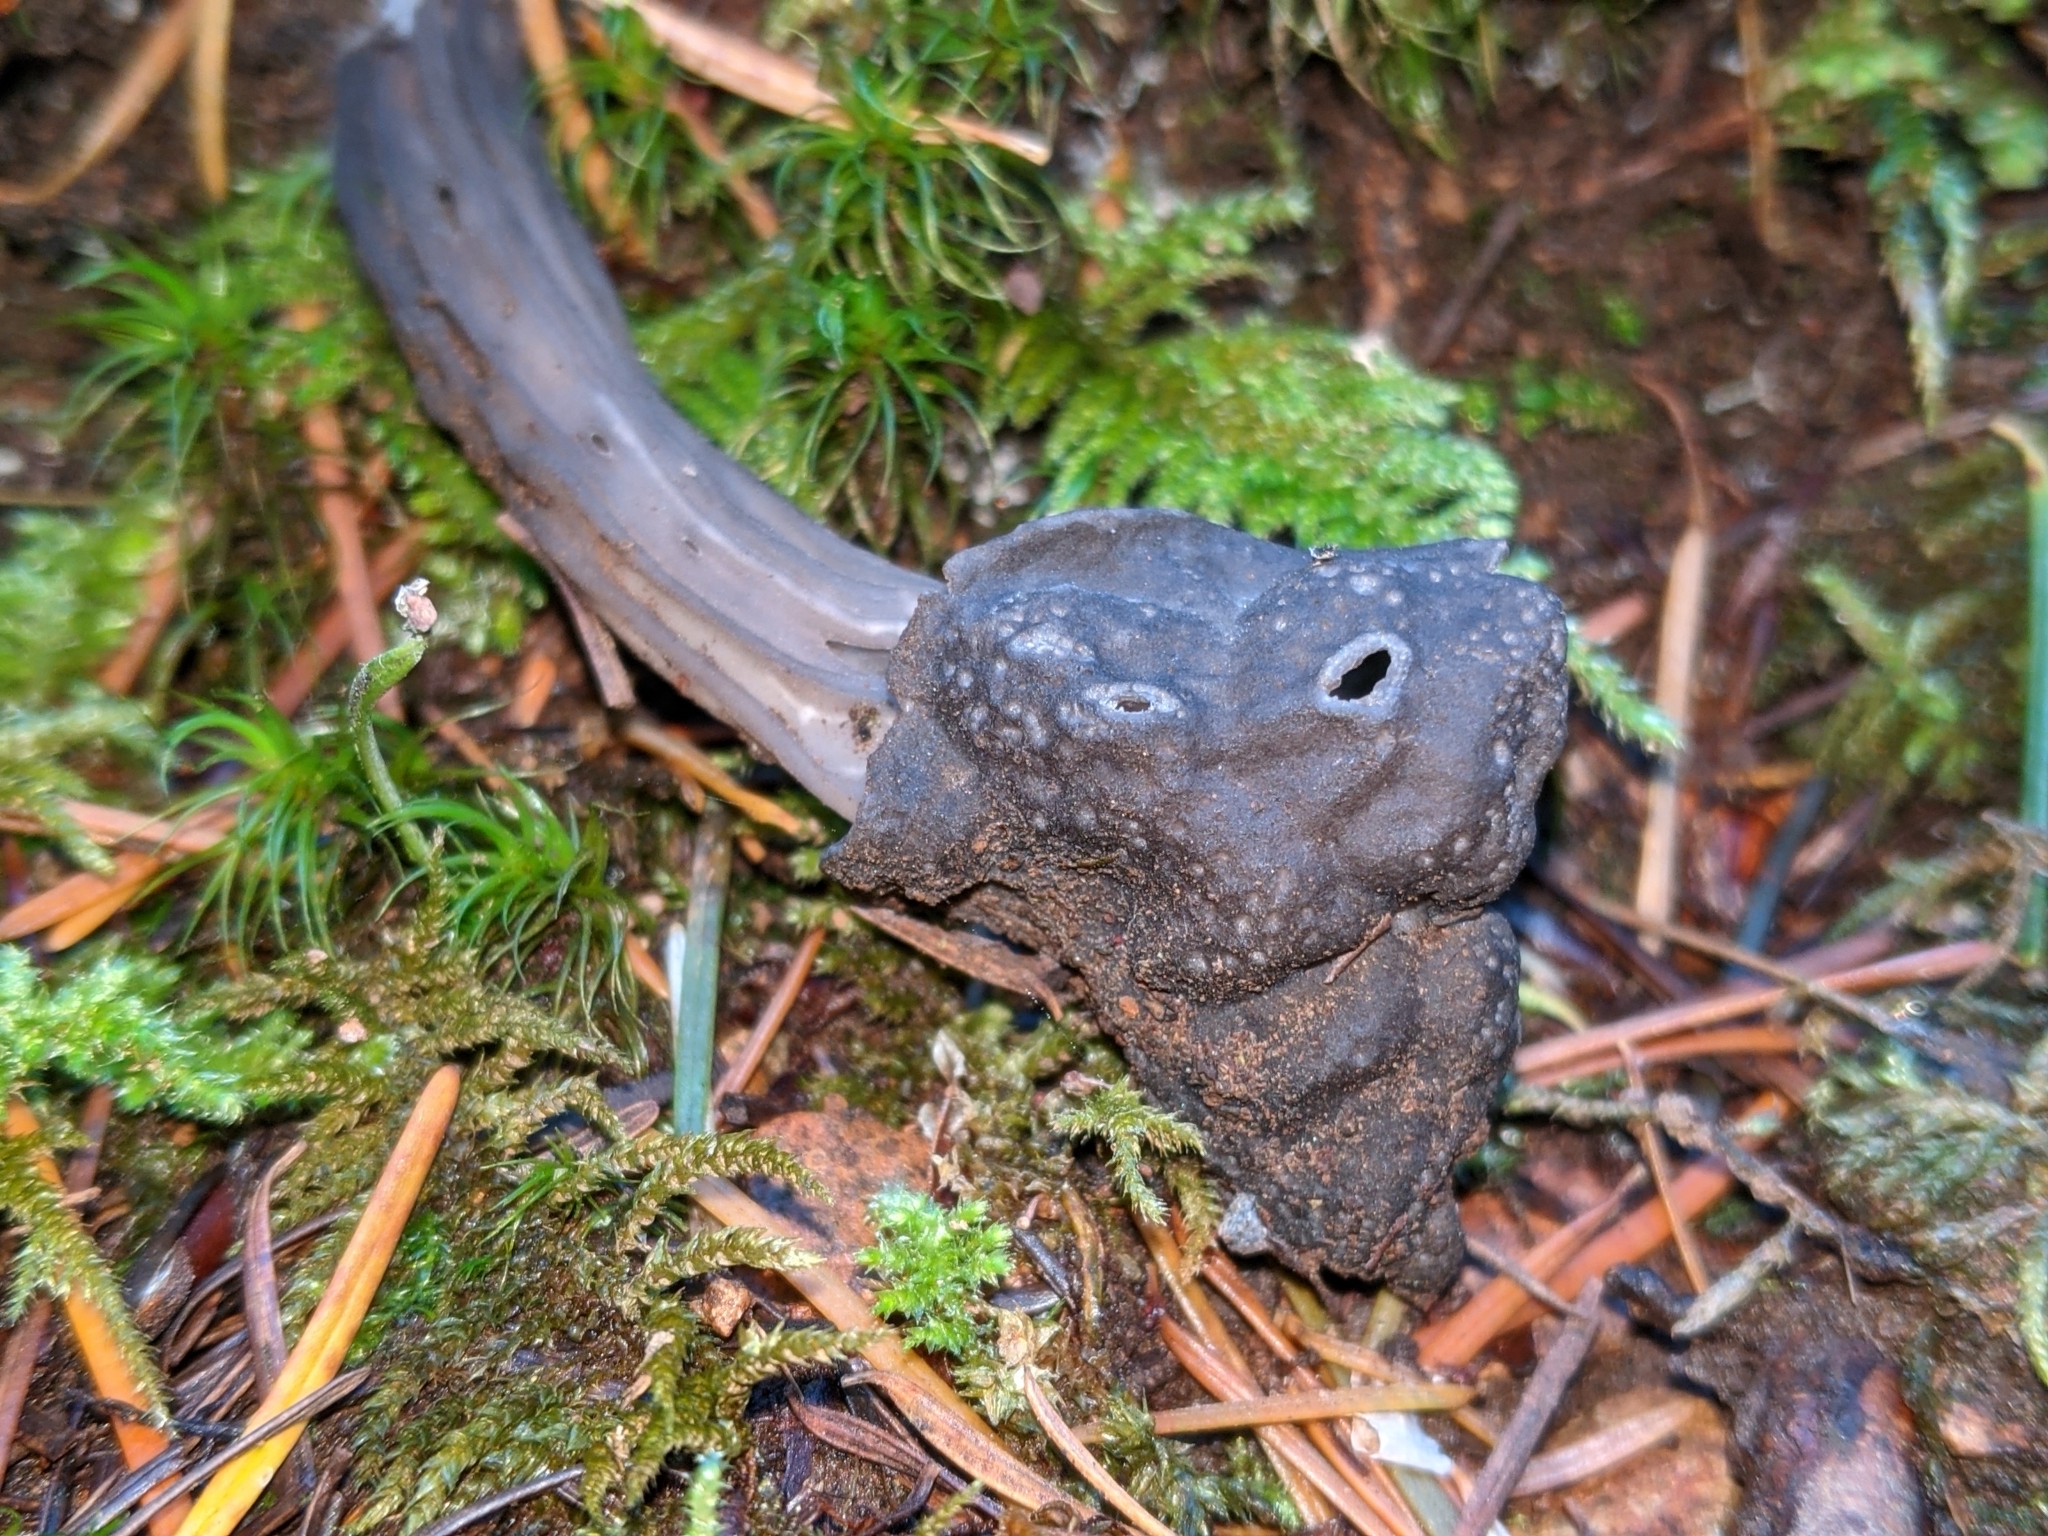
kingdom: Fungi
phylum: Ascomycota
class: Pezizomycetes
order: Pezizales
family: Helvellaceae
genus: Helvella
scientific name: Helvella vespertina
